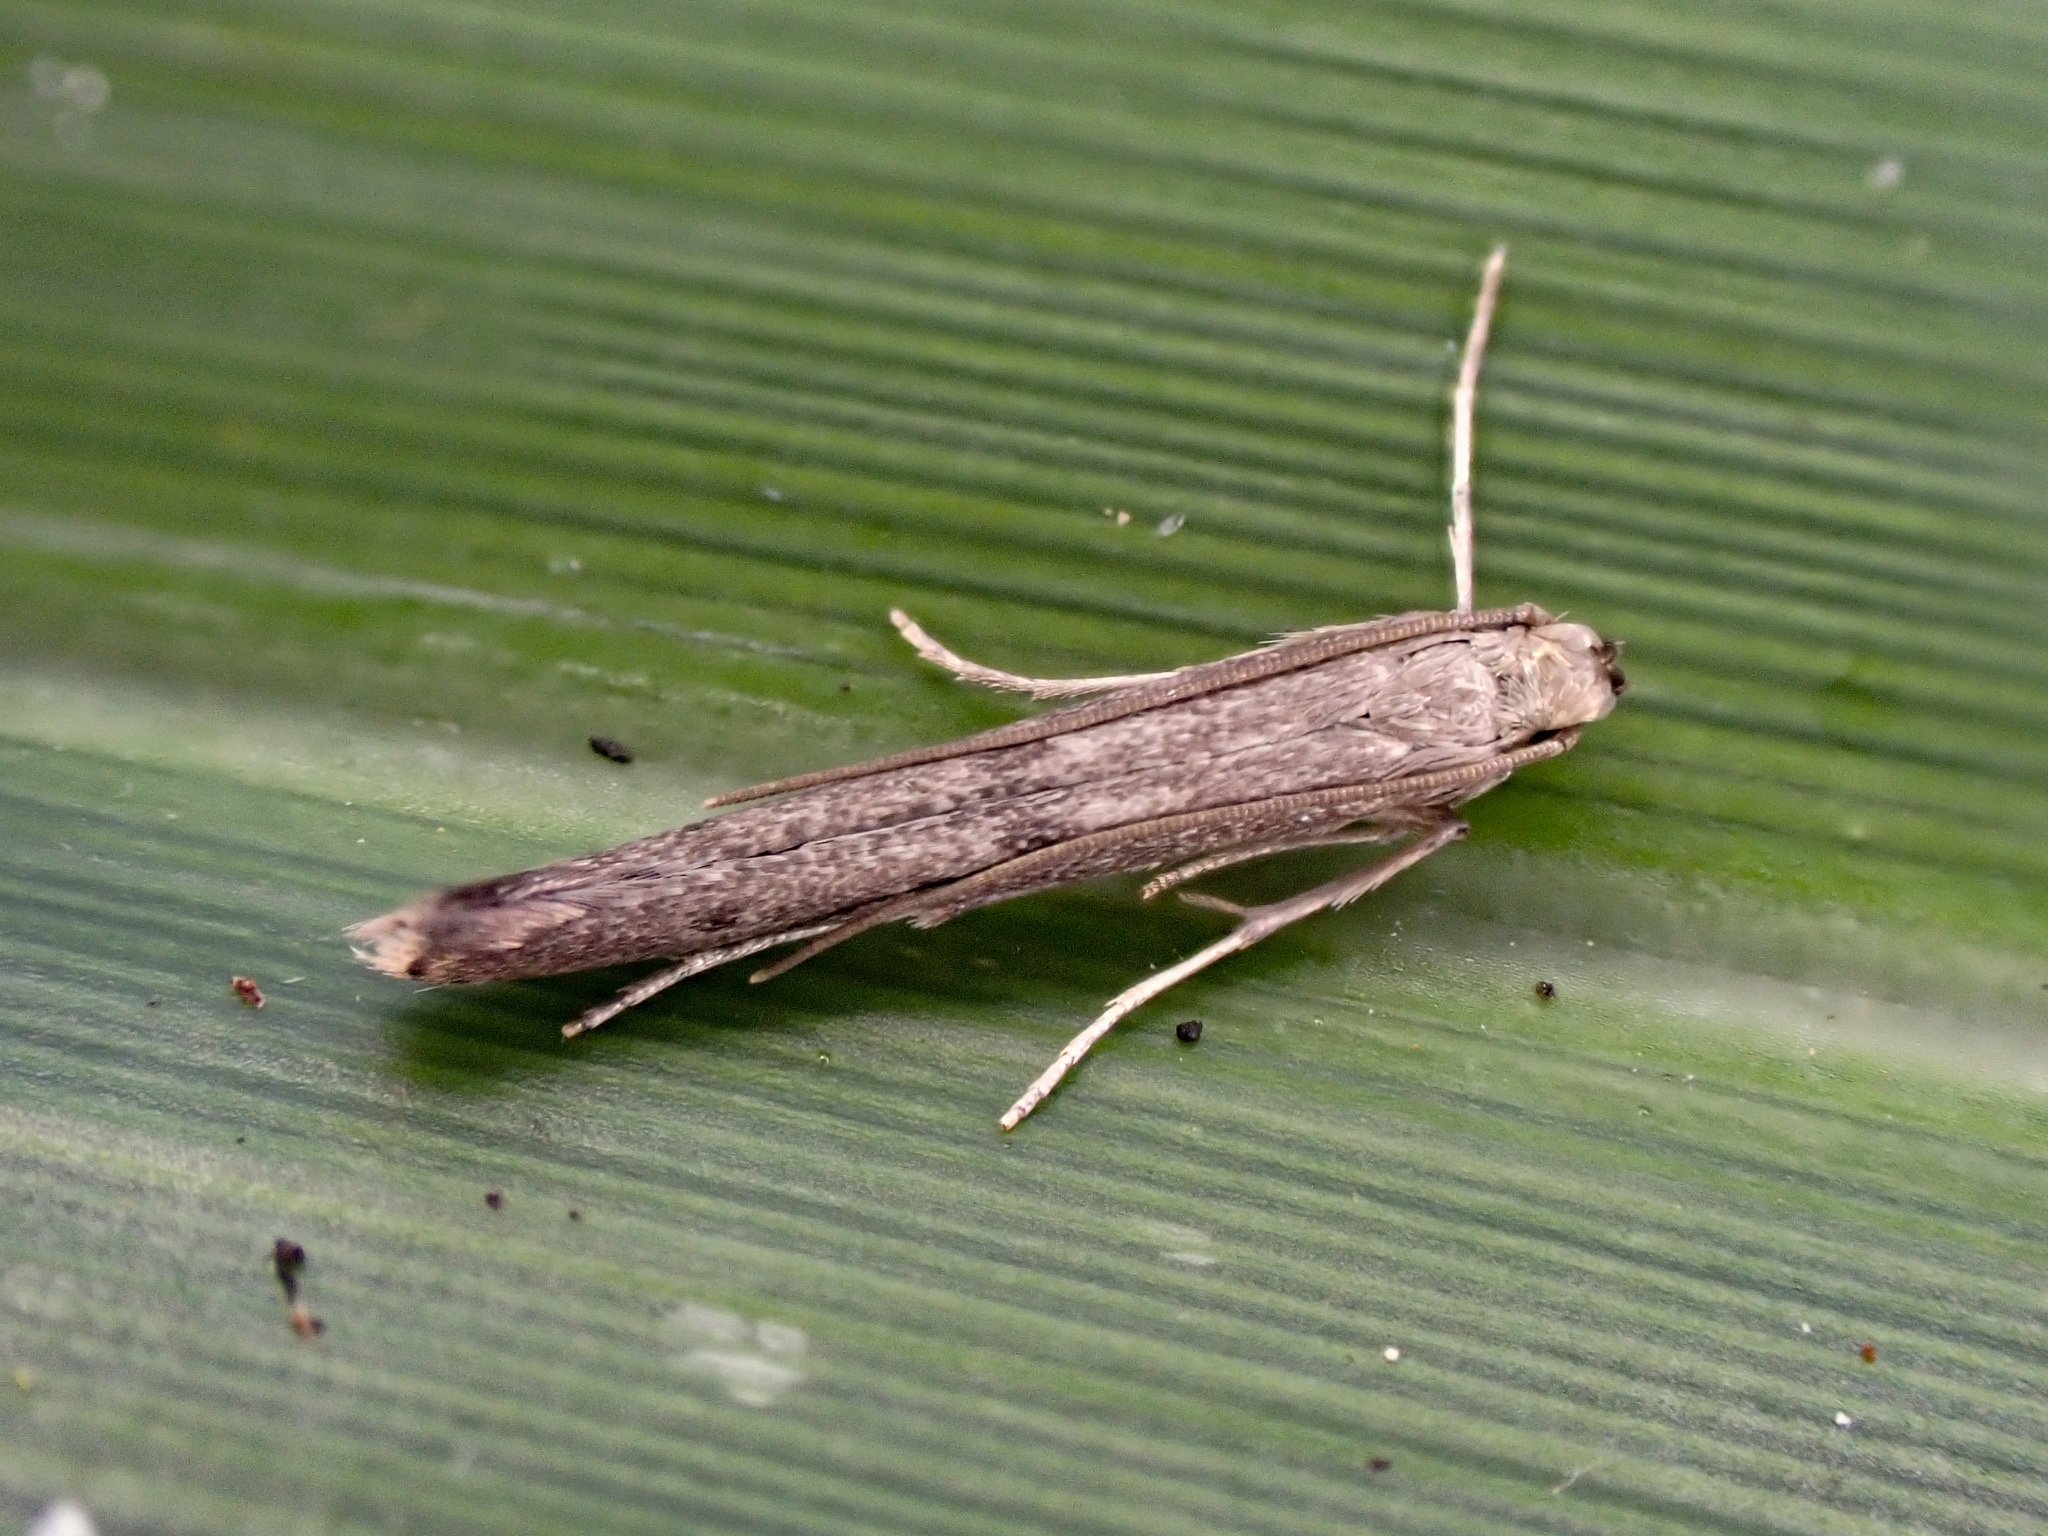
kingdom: Animalia
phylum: Arthropoda
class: Insecta
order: Lepidoptera
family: Batrachedridae
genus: Batrachedra
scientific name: Batrachedra agaura
